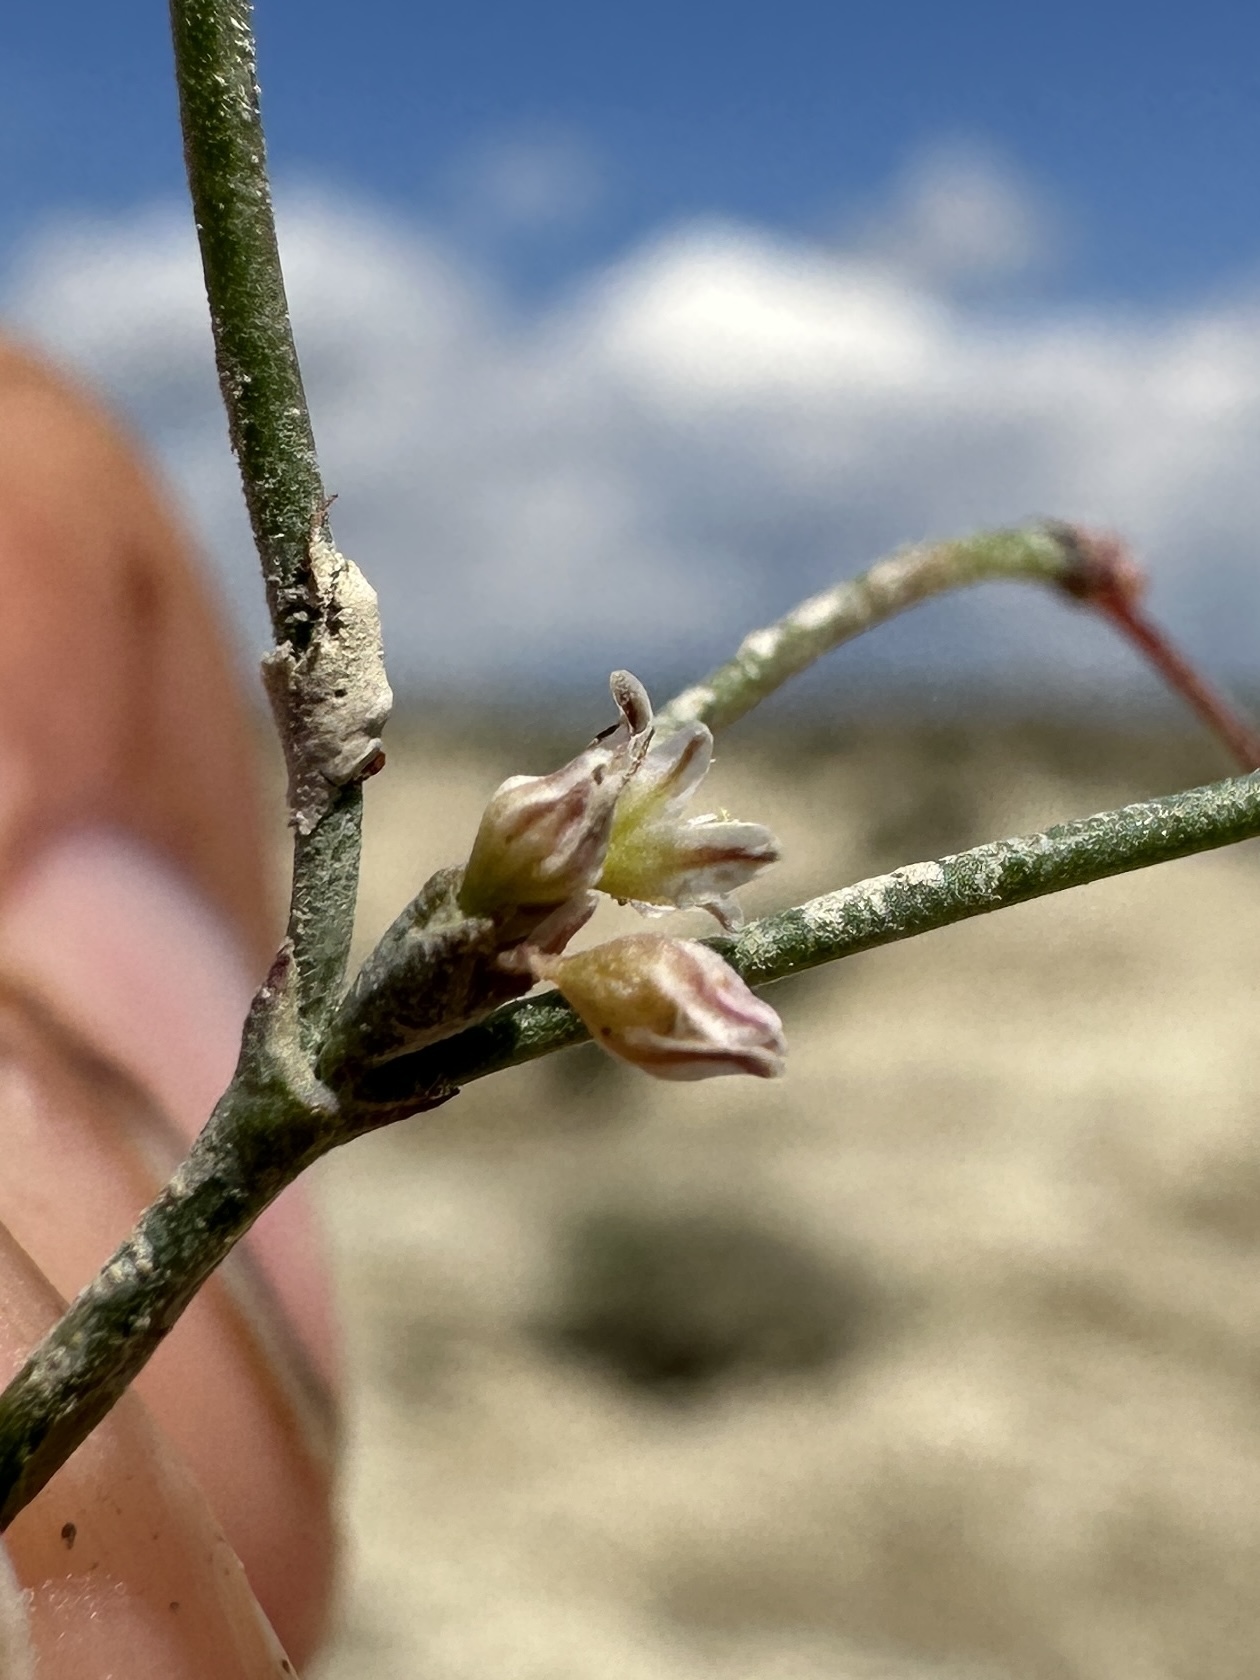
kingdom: Plantae
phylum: Tracheophyta
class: Magnoliopsida
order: Caryophyllales
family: Polygonaceae
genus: Eriogonum
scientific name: Eriogonum salicornioides
